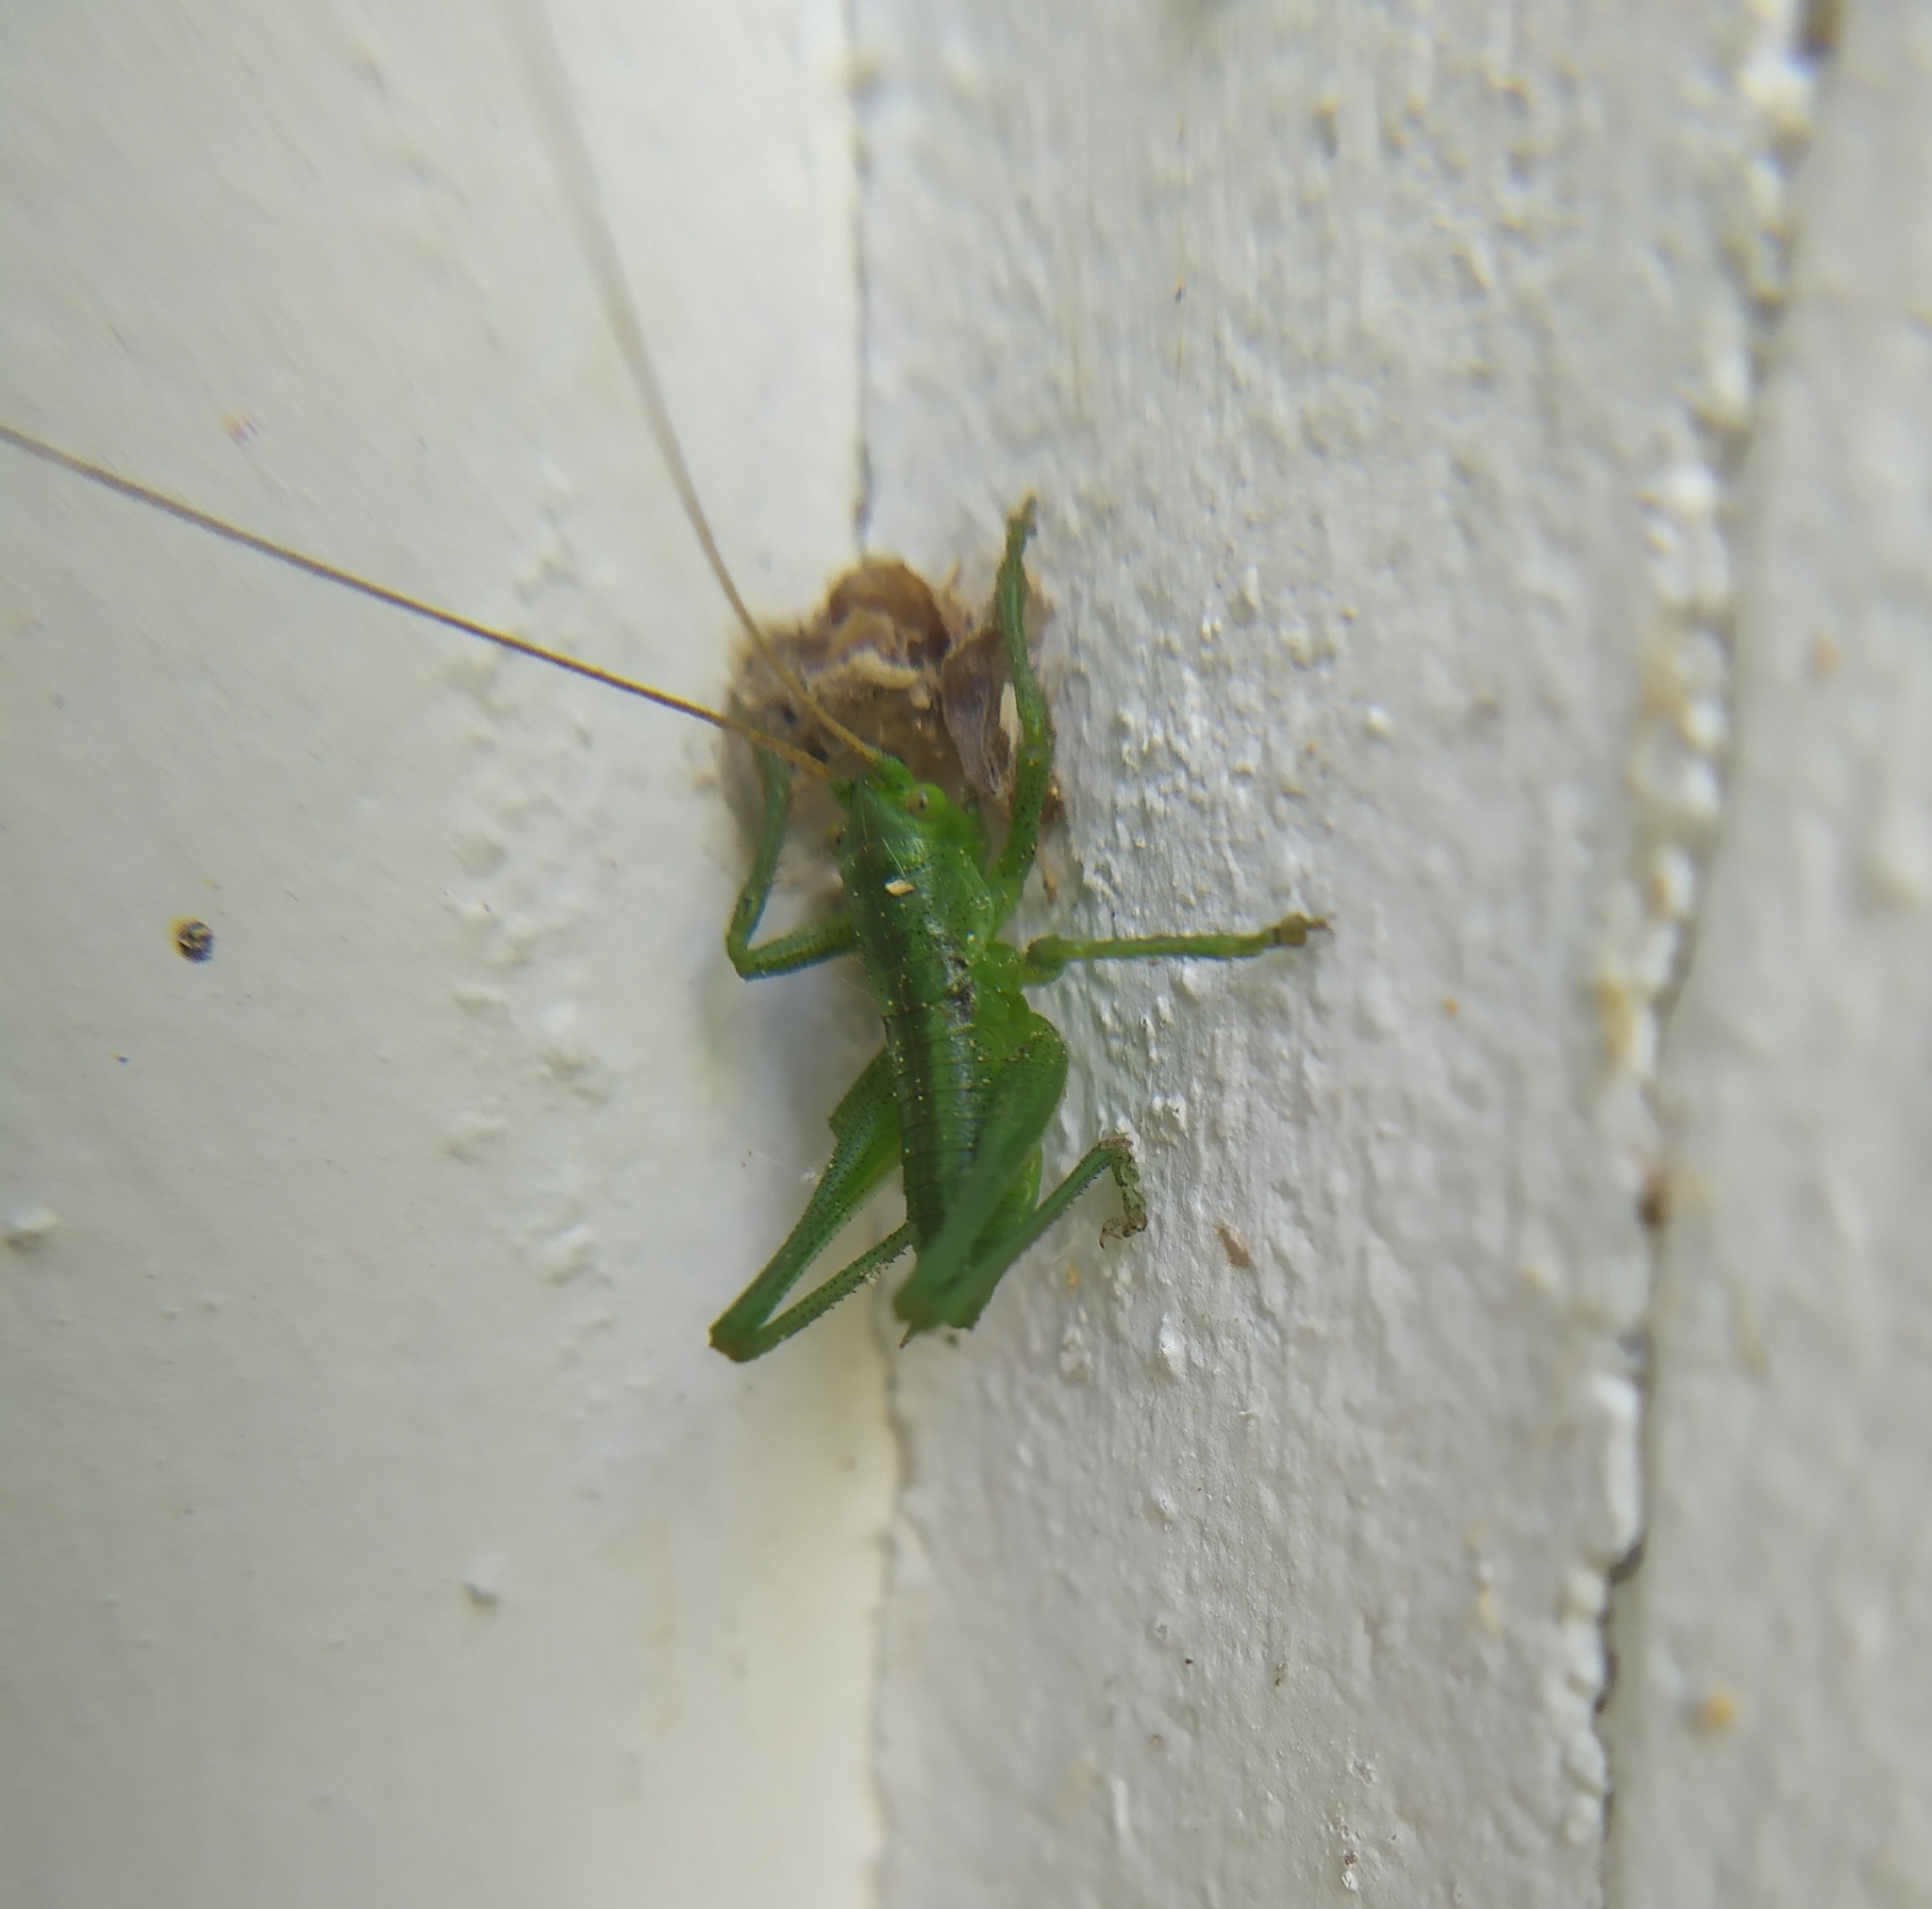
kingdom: Animalia
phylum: Arthropoda
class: Insecta
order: Orthoptera
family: Tettigoniidae
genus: Tettigonia
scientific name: Tettigonia viridissima
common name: Great green bush-cricket
